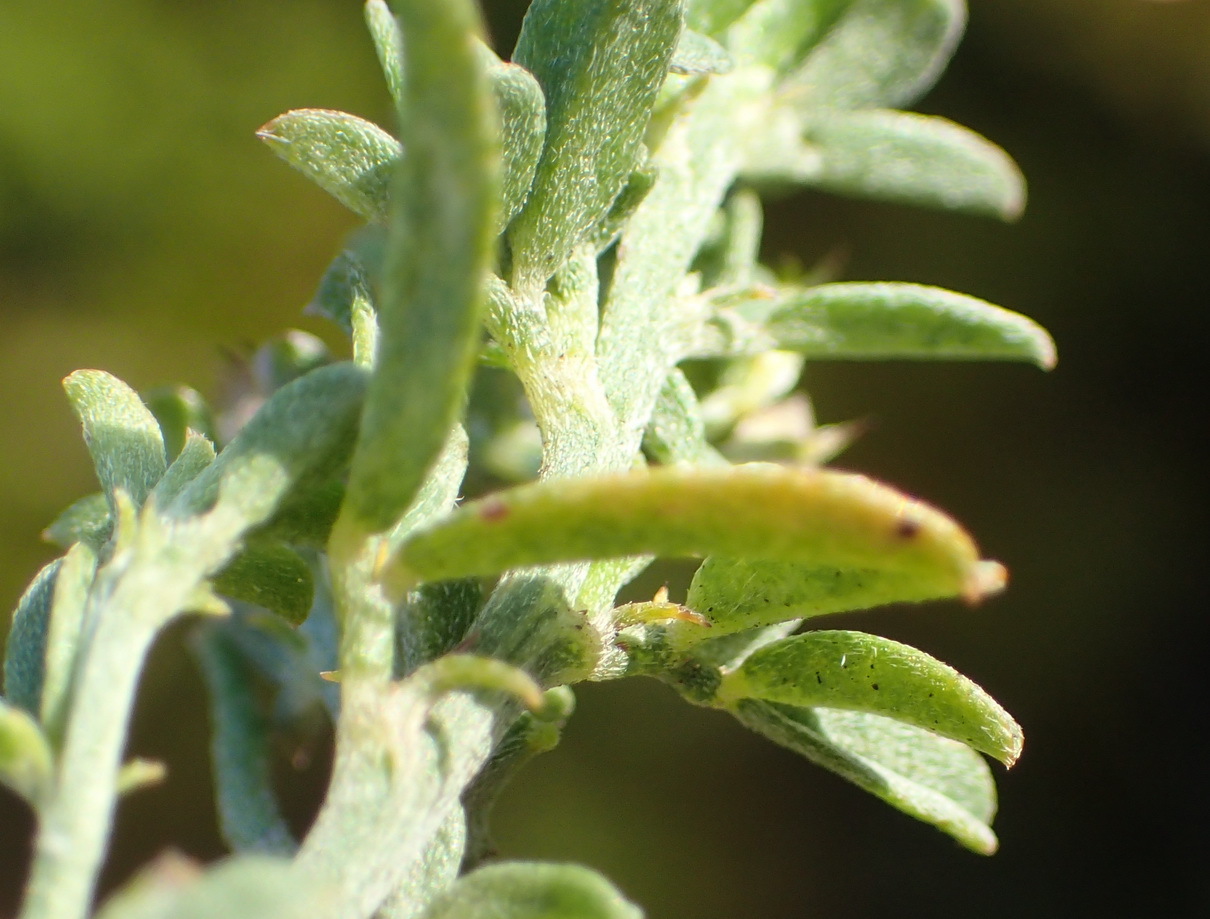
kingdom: Plantae
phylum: Tracheophyta
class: Magnoliopsida
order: Fabales
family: Fabaceae
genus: Indigofera
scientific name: Indigofera priorii
